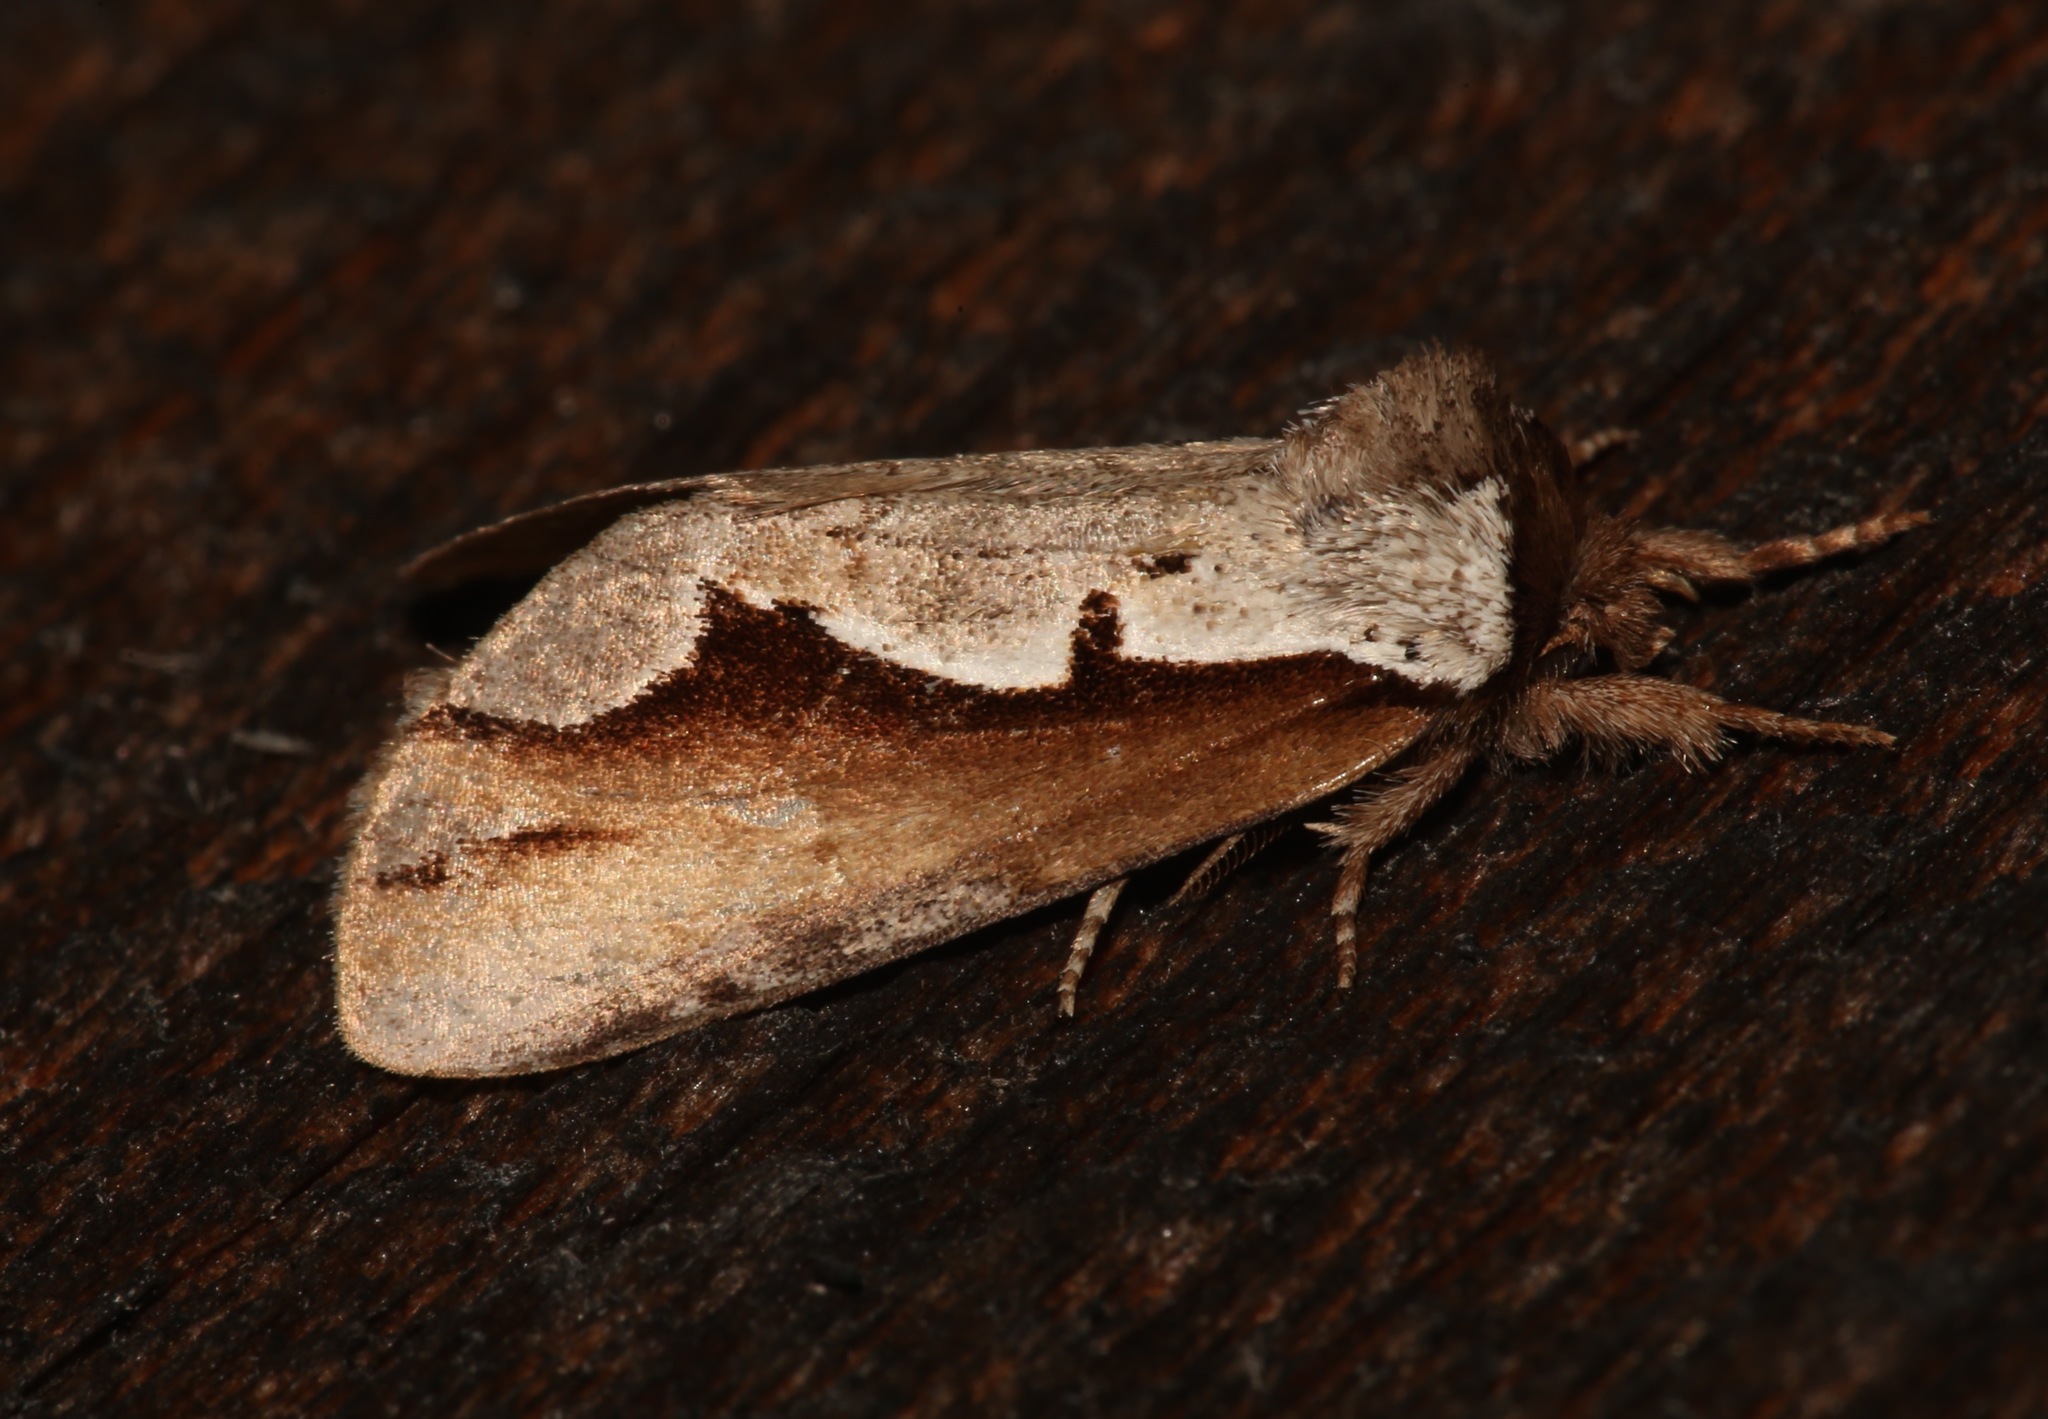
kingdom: Animalia
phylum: Arthropoda
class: Insecta
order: Lepidoptera
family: Notodontidae
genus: Nerice
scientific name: Nerice bidentata
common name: Double-toothed prominent
